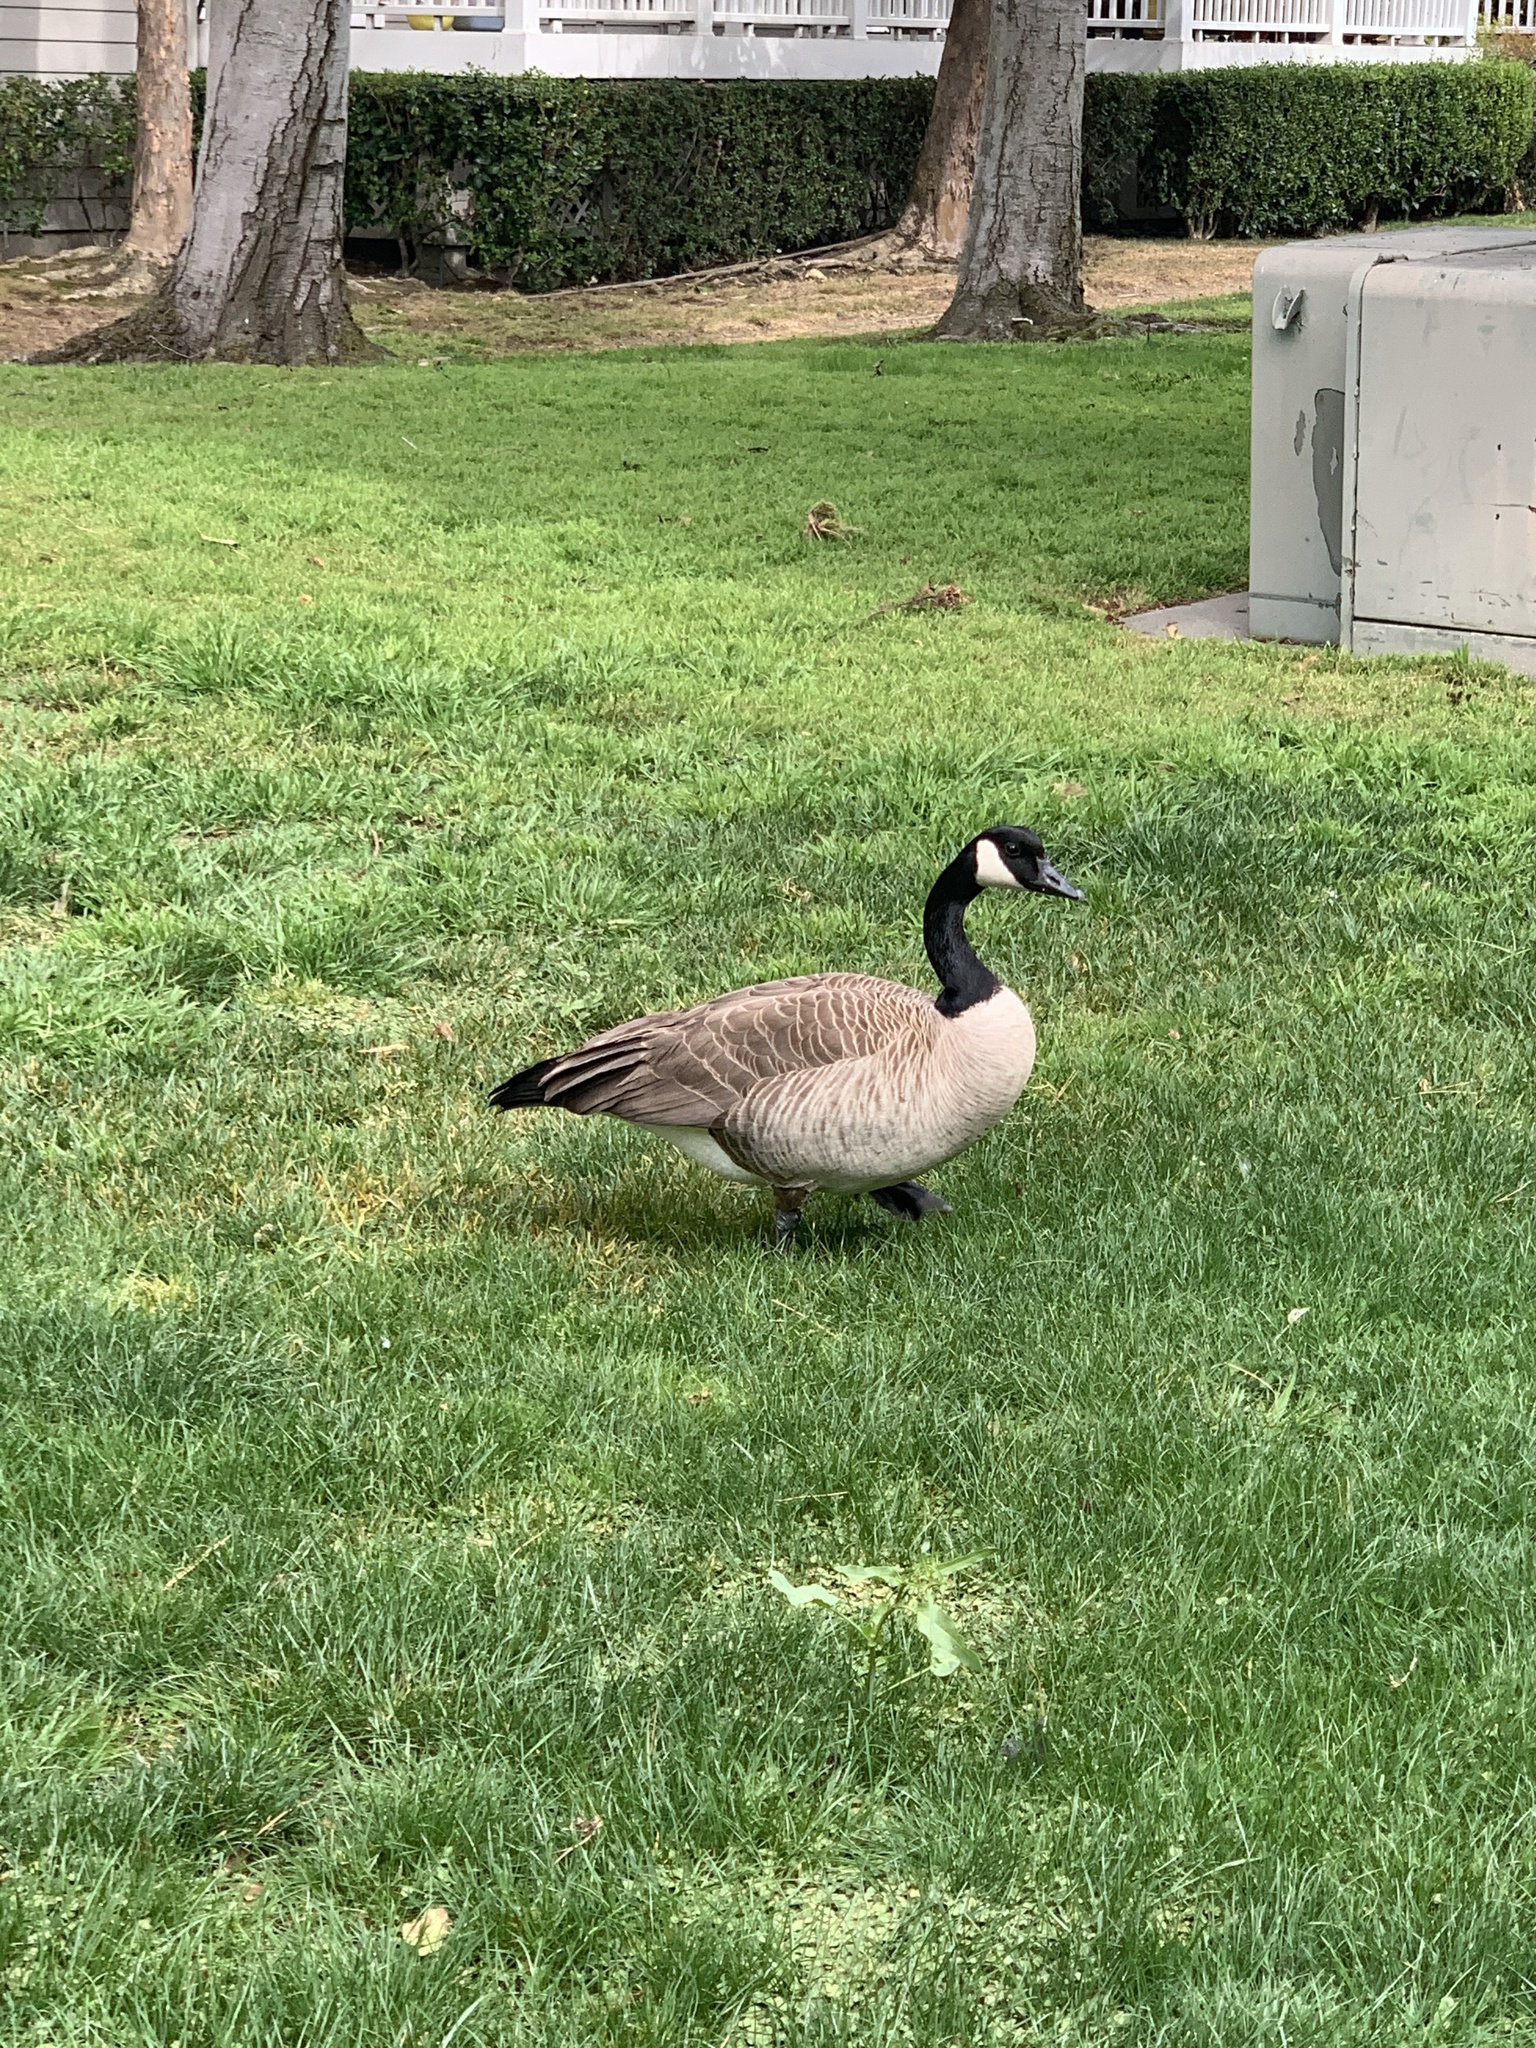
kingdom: Animalia
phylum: Chordata
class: Aves
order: Anseriformes
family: Anatidae
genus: Branta
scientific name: Branta canadensis
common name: Canada goose
